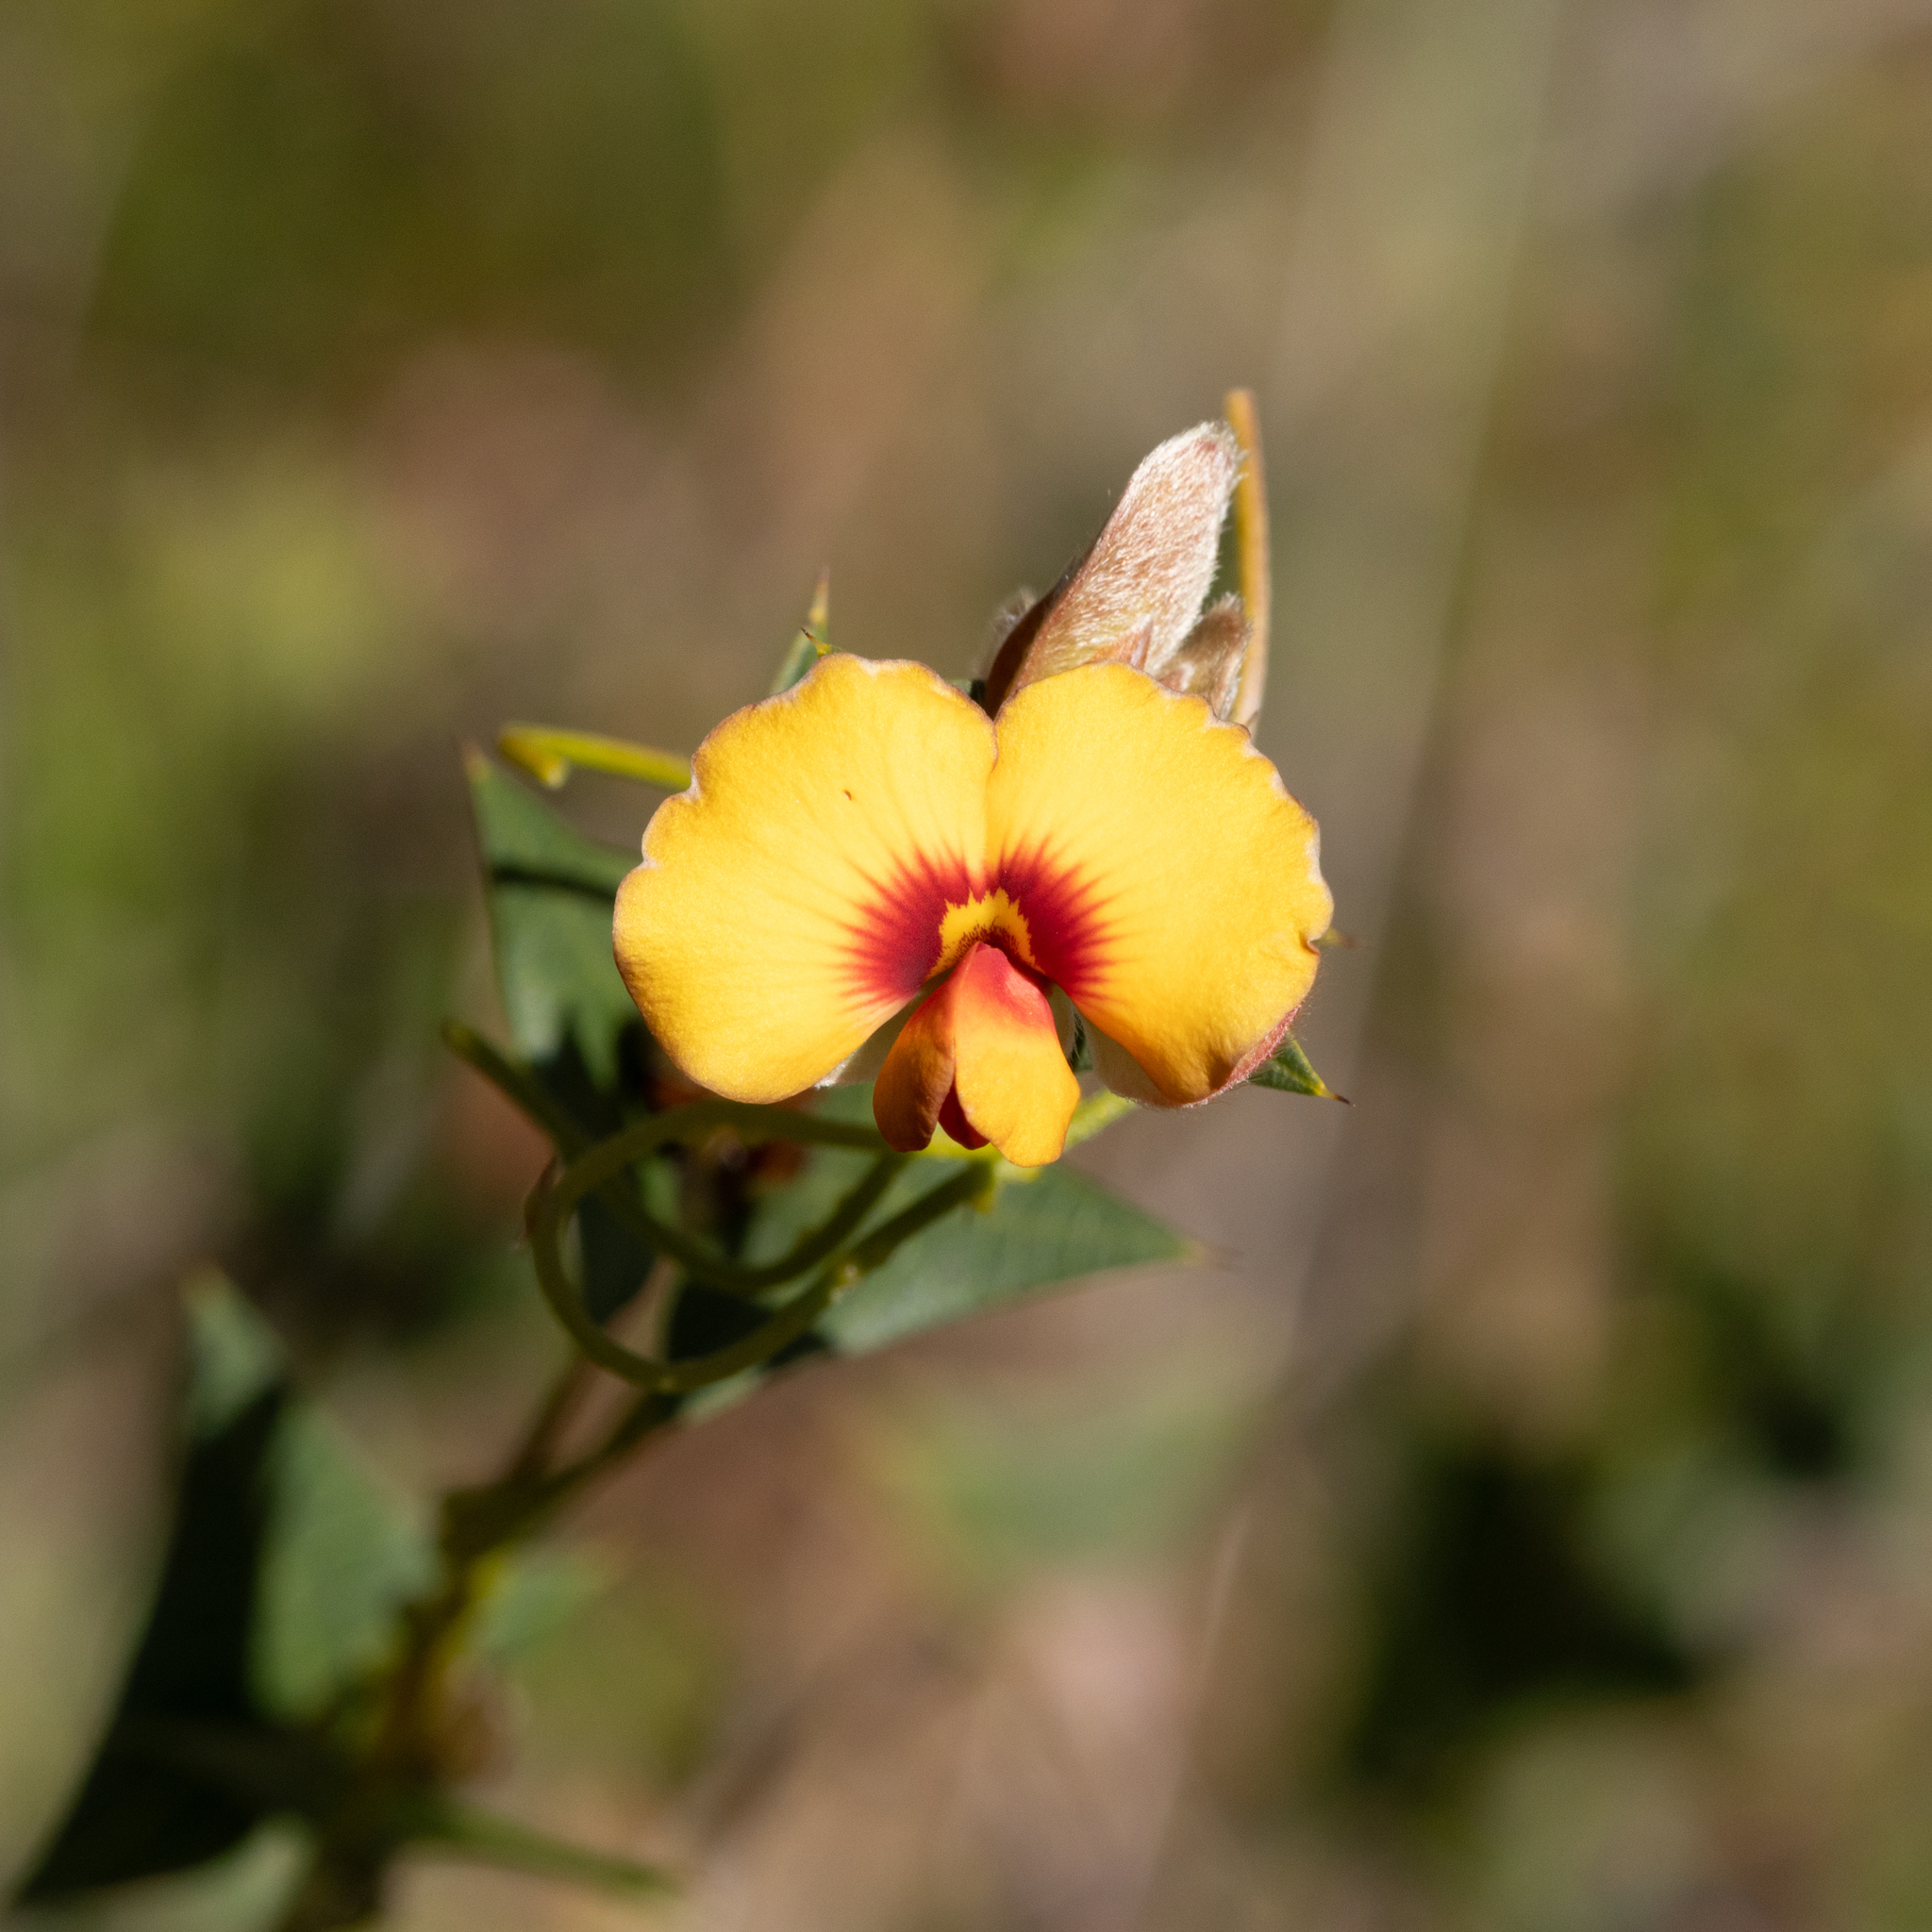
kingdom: Plantae
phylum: Tracheophyta
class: Magnoliopsida
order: Fabales
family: Fabaceae
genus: Platylobium
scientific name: Platylobium obtusangulum
